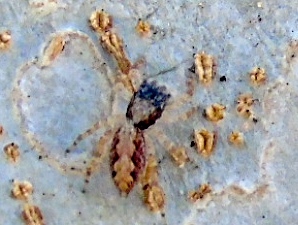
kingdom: Animalia
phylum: Arthropoda
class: Arachnida
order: Araneae
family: Salticidae
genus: Balmaceda
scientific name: Balmaceda
